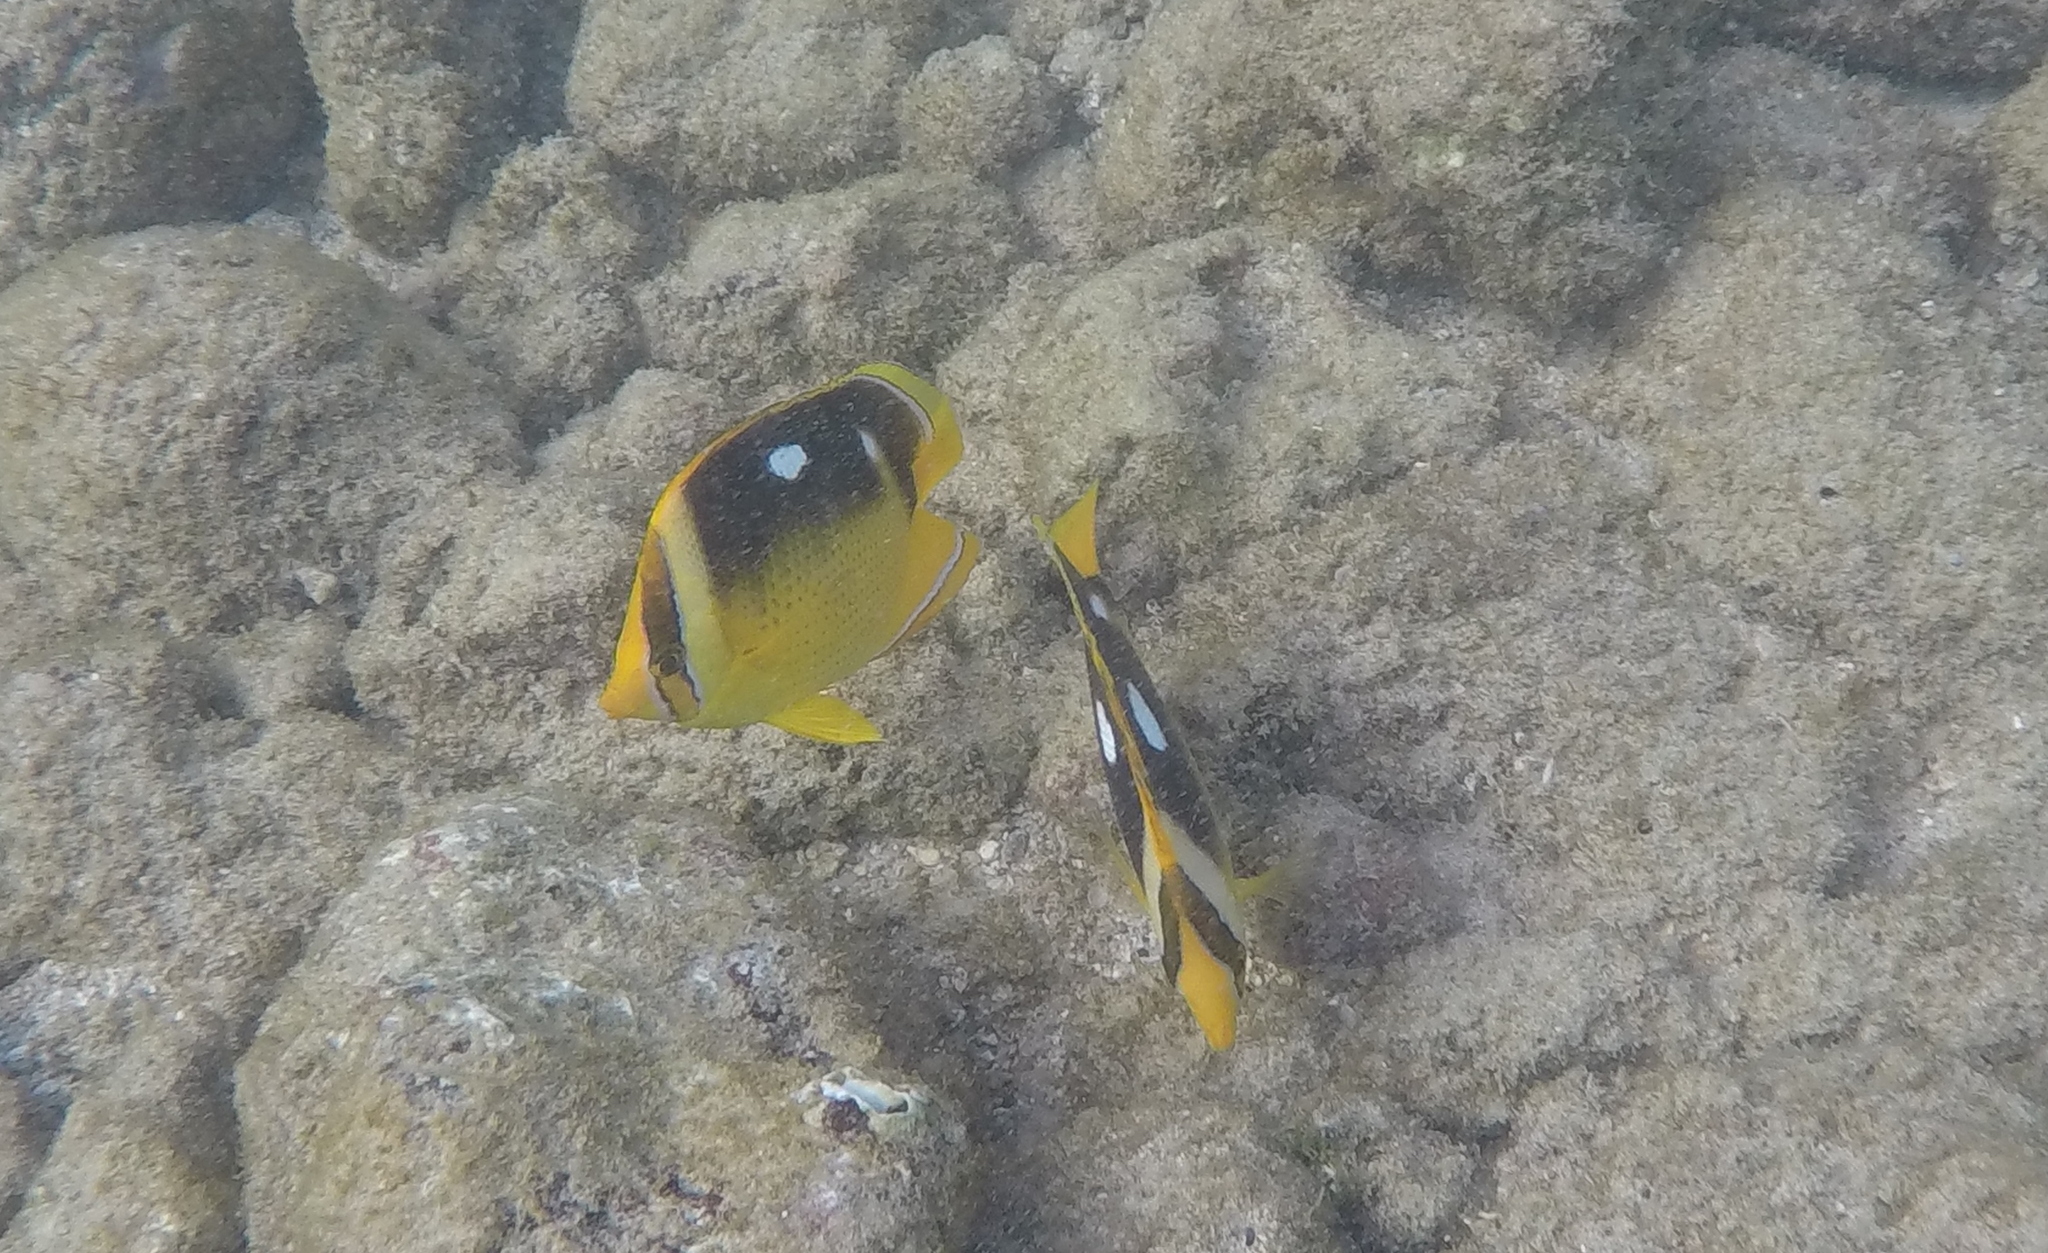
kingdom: Animalia
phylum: Chordata
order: Perciformes
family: Chaetodontidae
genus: Chaetodon
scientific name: Chaetodon quadrimaculatus
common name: Fourspot butterflyfish
